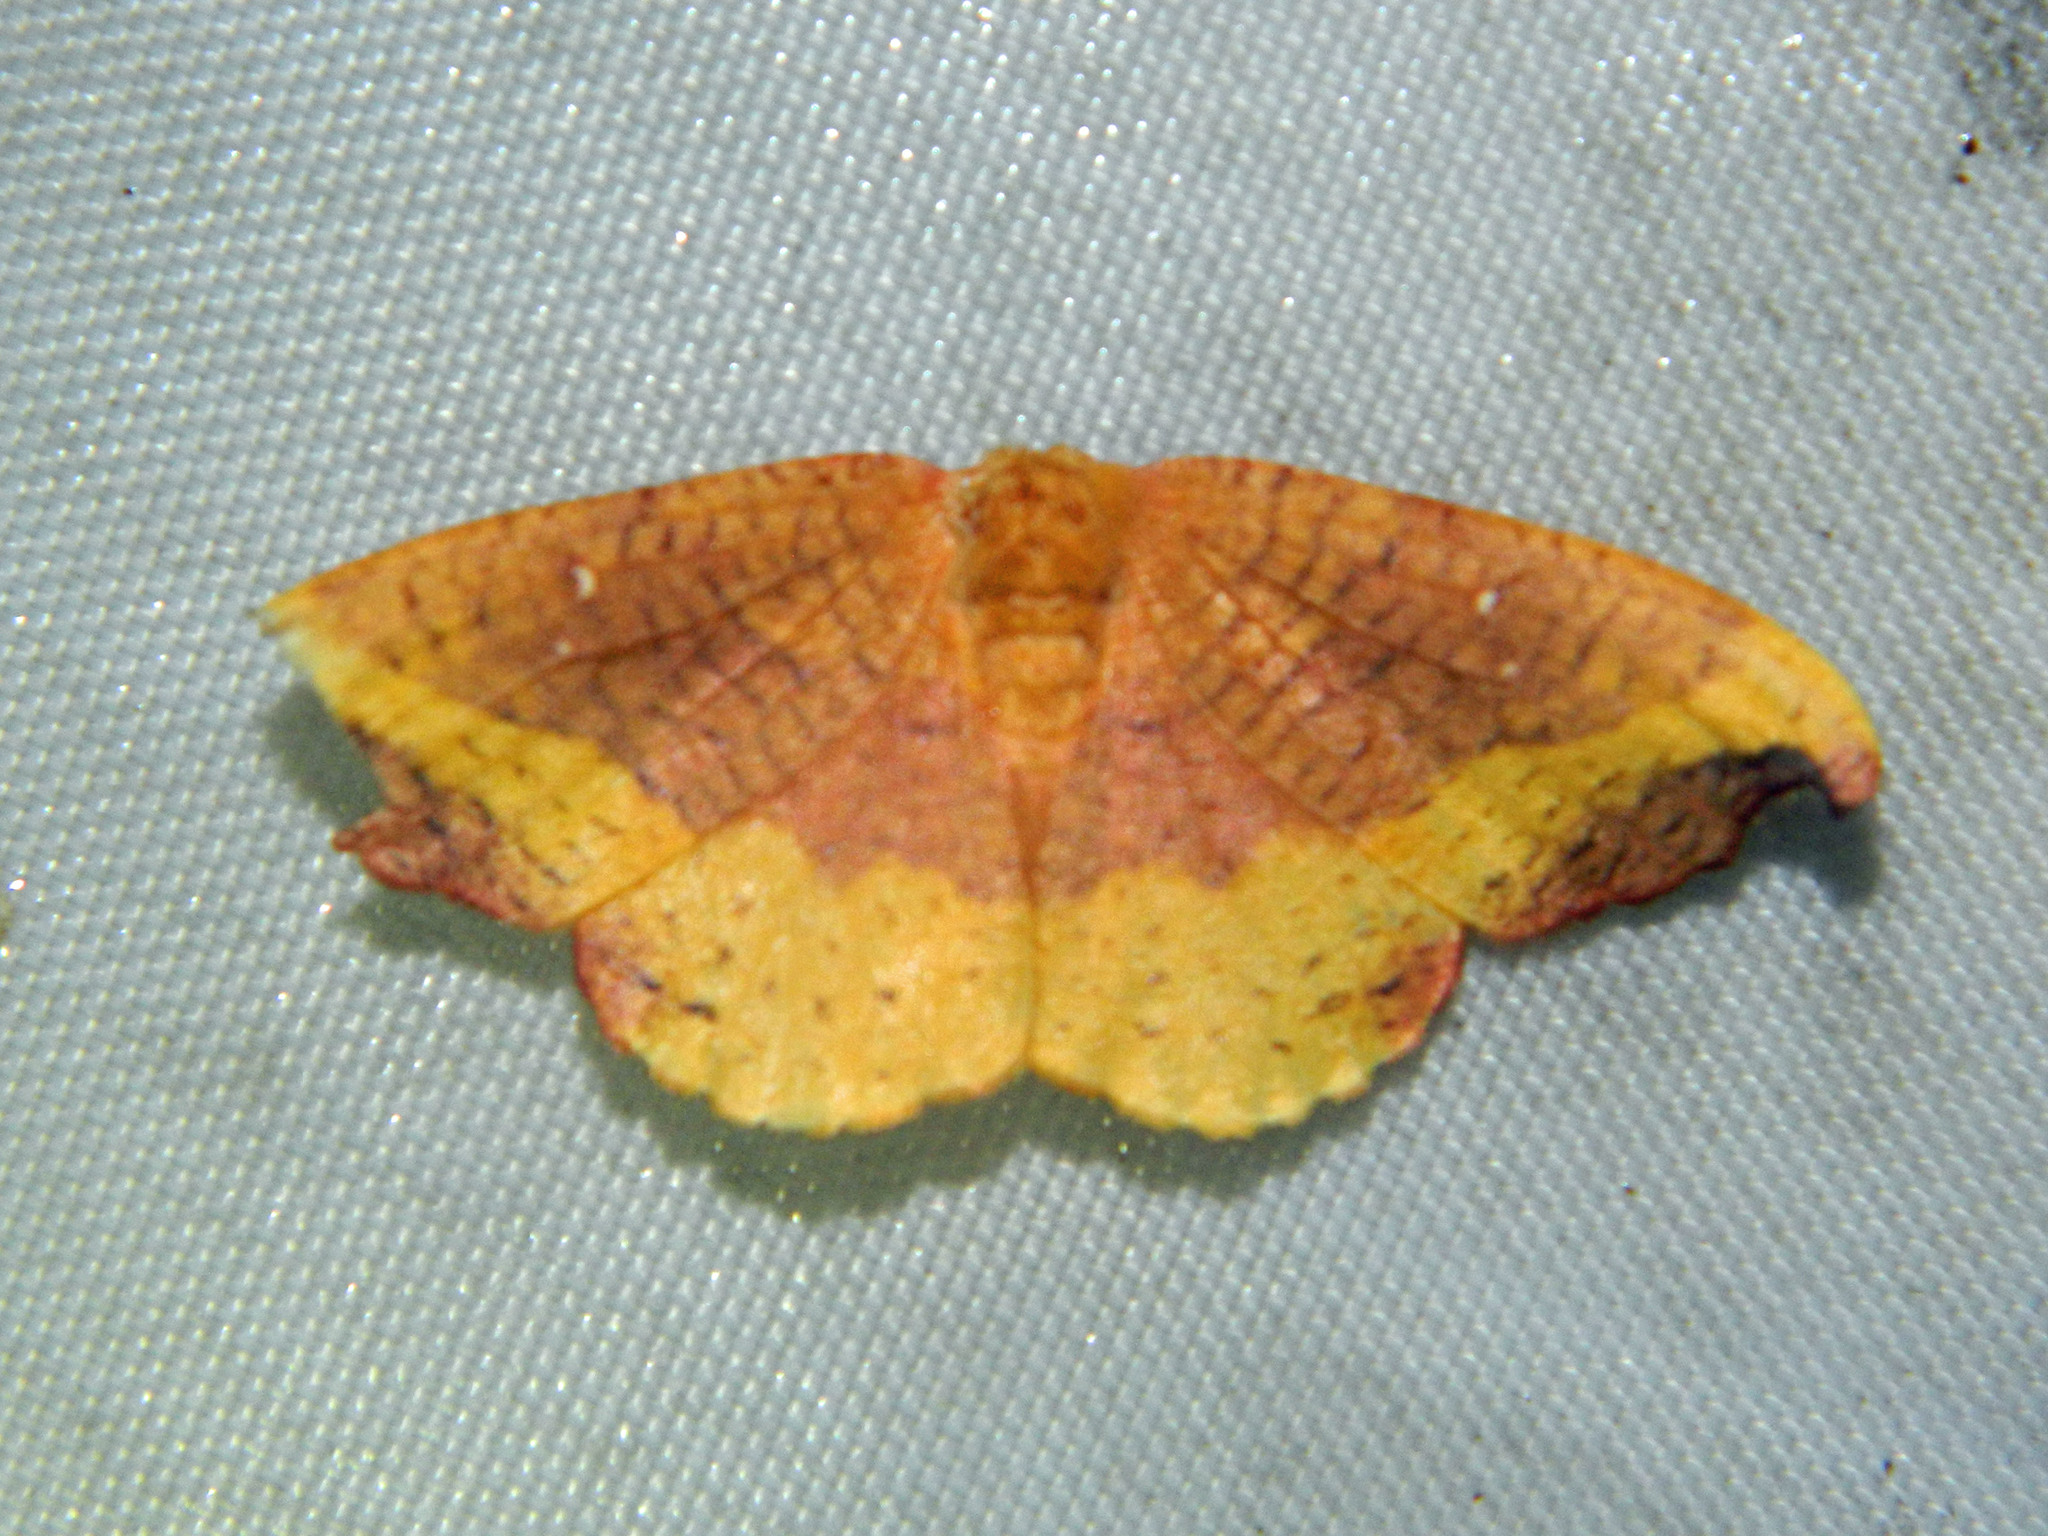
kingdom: Animalia
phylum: Arthropoda
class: Insecta
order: Lepidoptera
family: Drepanidae
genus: Oreta
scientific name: Oreta rosea
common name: Rose hooktip
